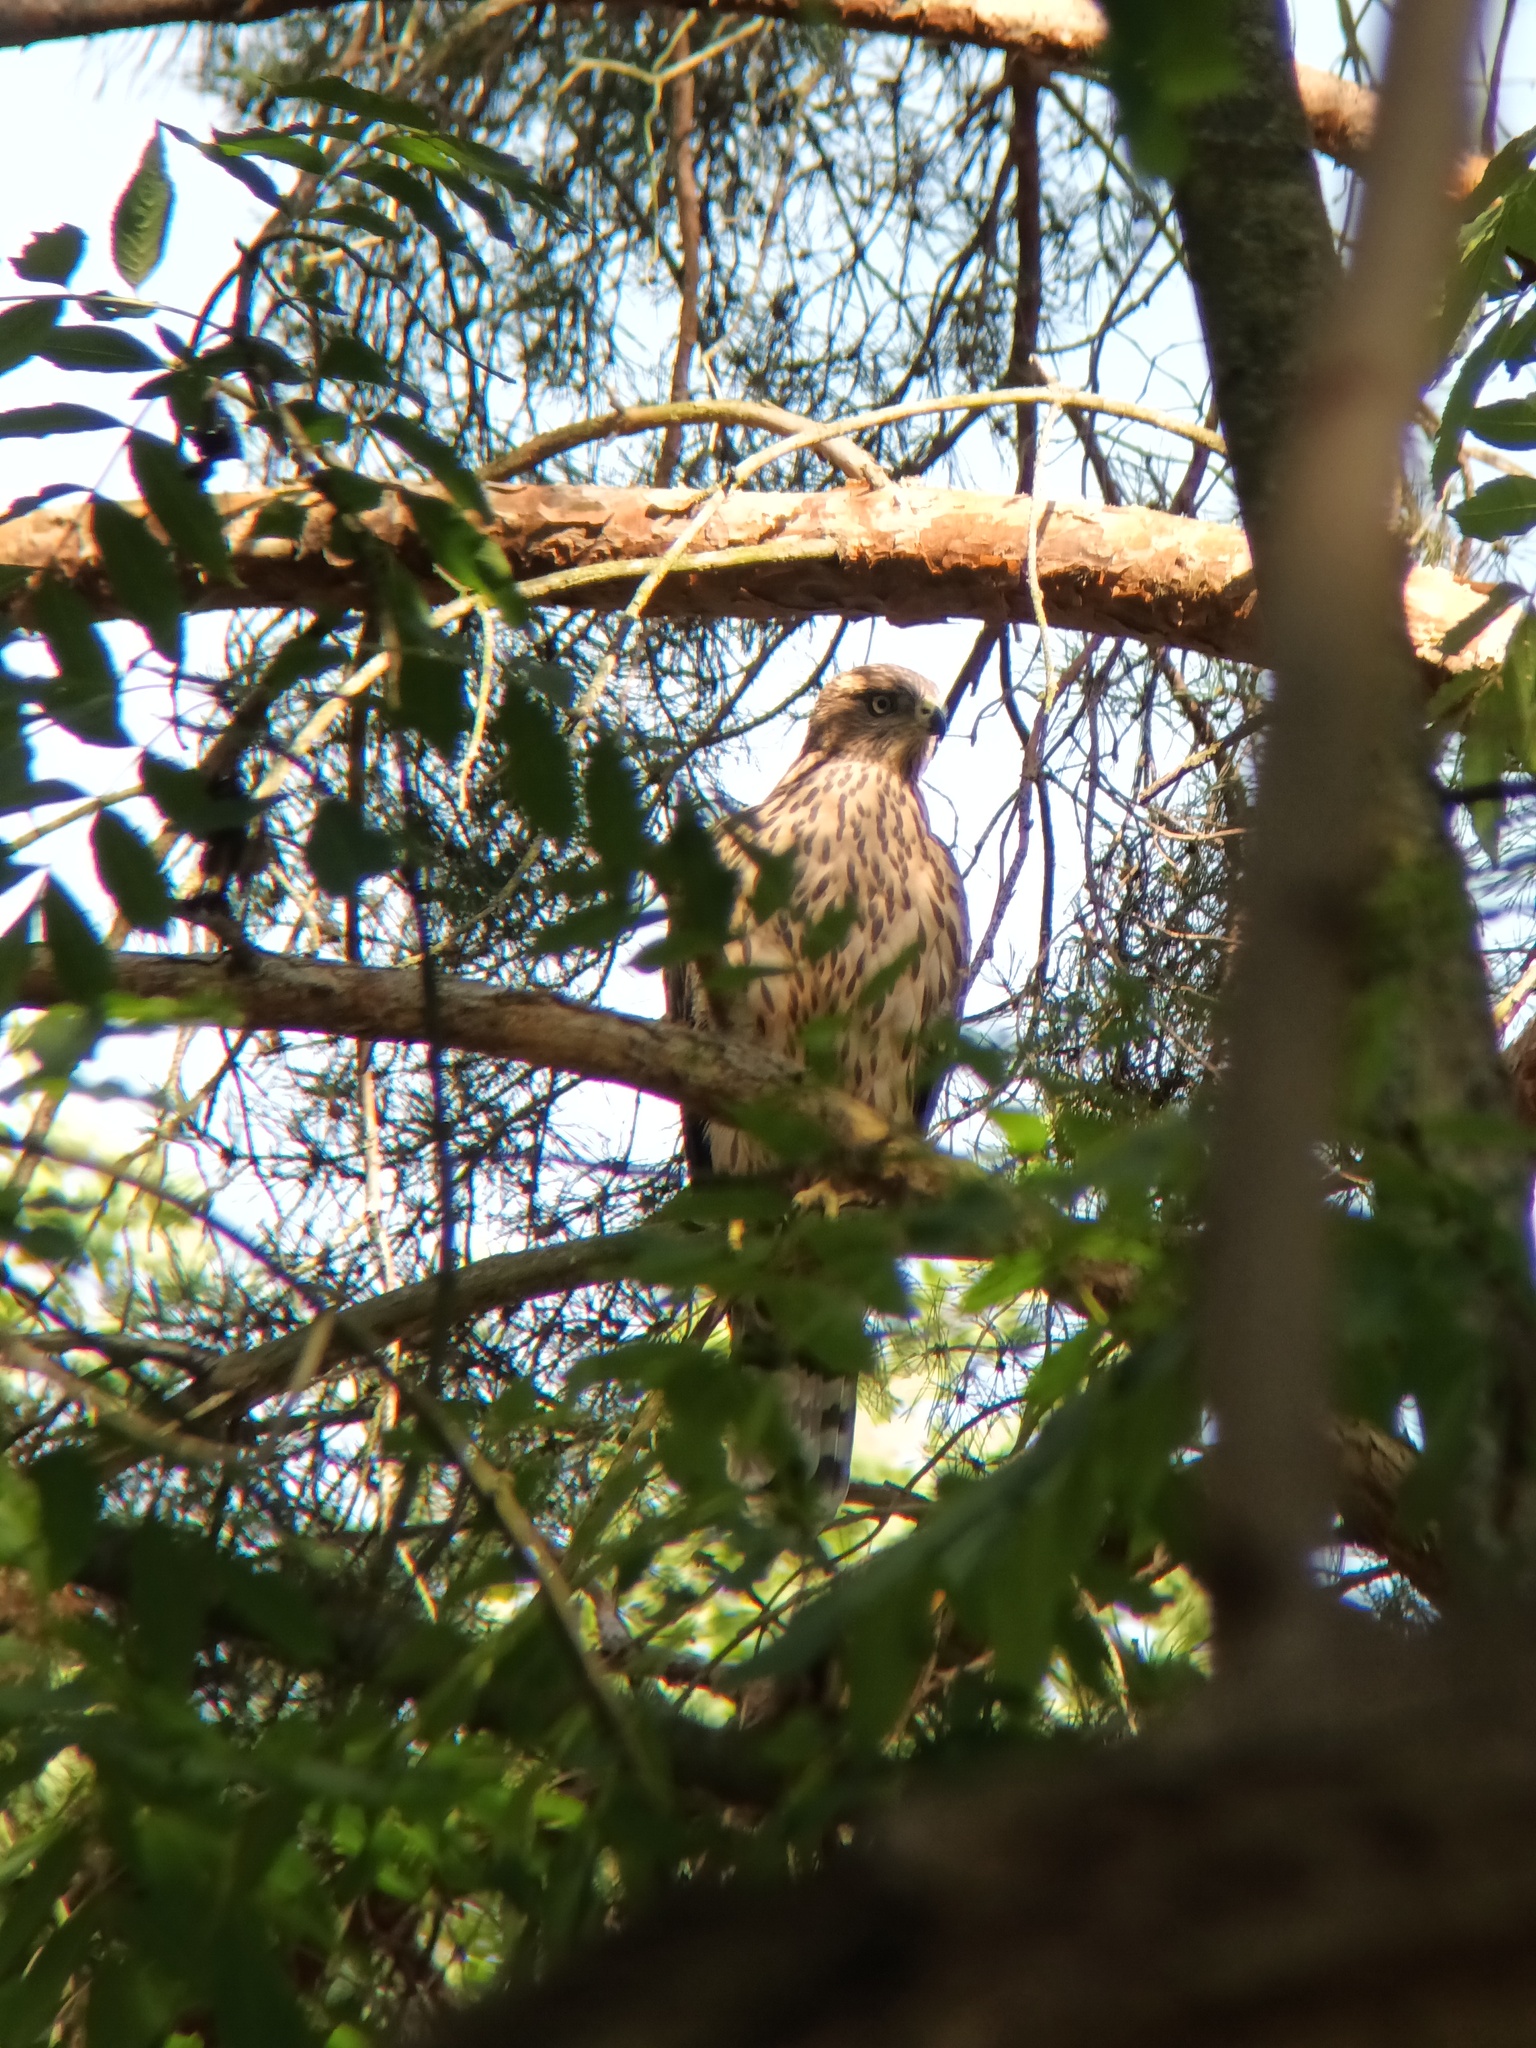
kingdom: Animalia
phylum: Chordata
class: Aves
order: Accipitriformes
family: Accipitridae
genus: Accipiter
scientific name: Accipiter gentilis
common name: Northern goshawk
